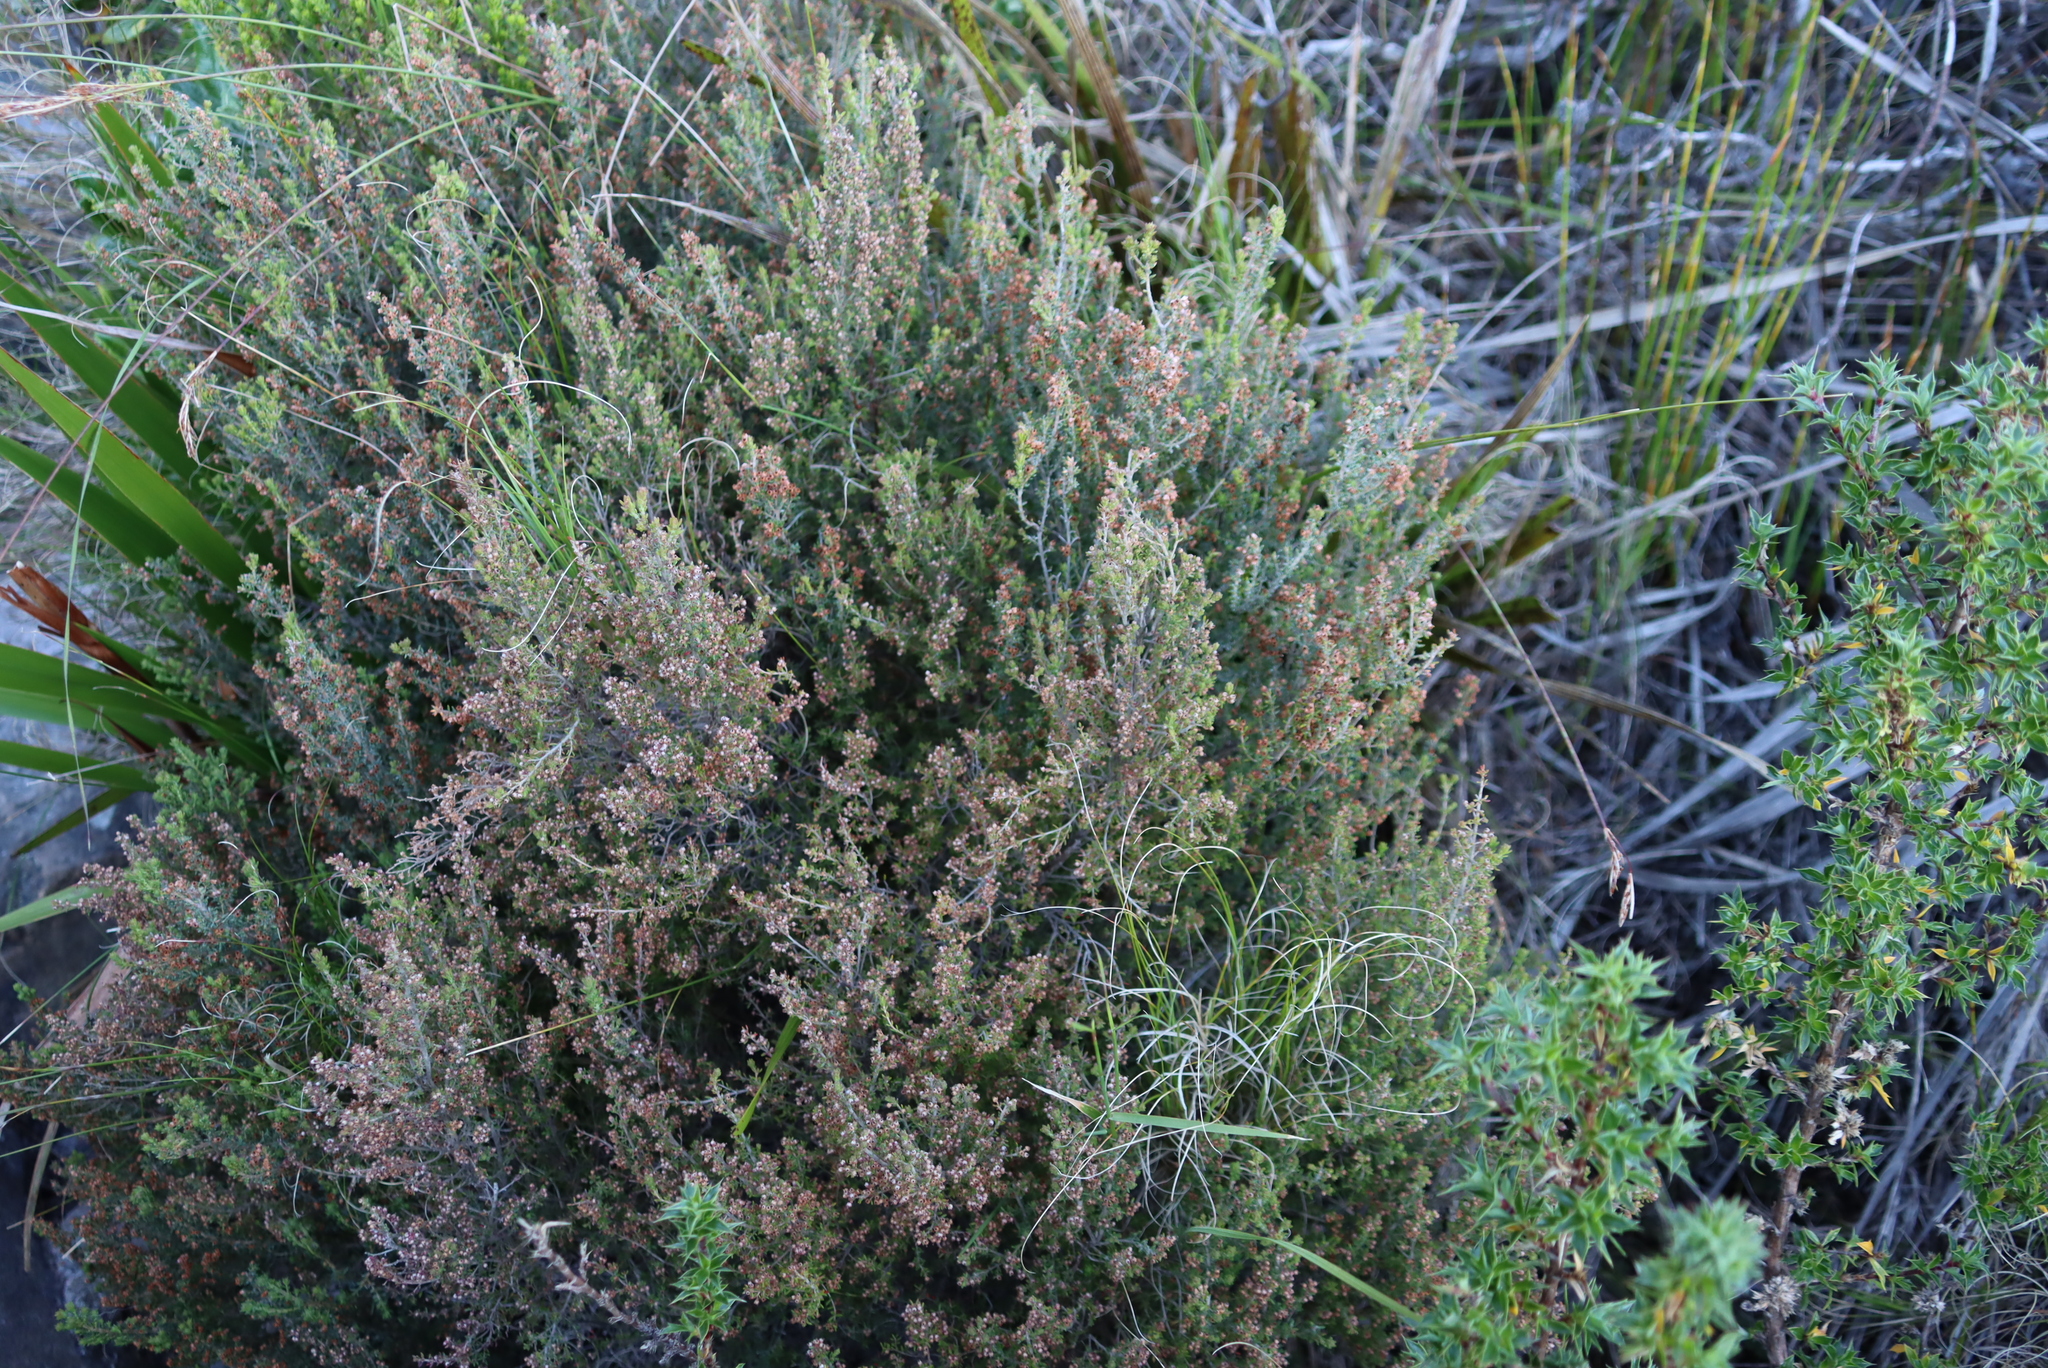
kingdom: Plantae
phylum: Tracheophyta
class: Magnoliopsida
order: Ericales
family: Ericaceae
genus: Erica
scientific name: Erica hispidula
